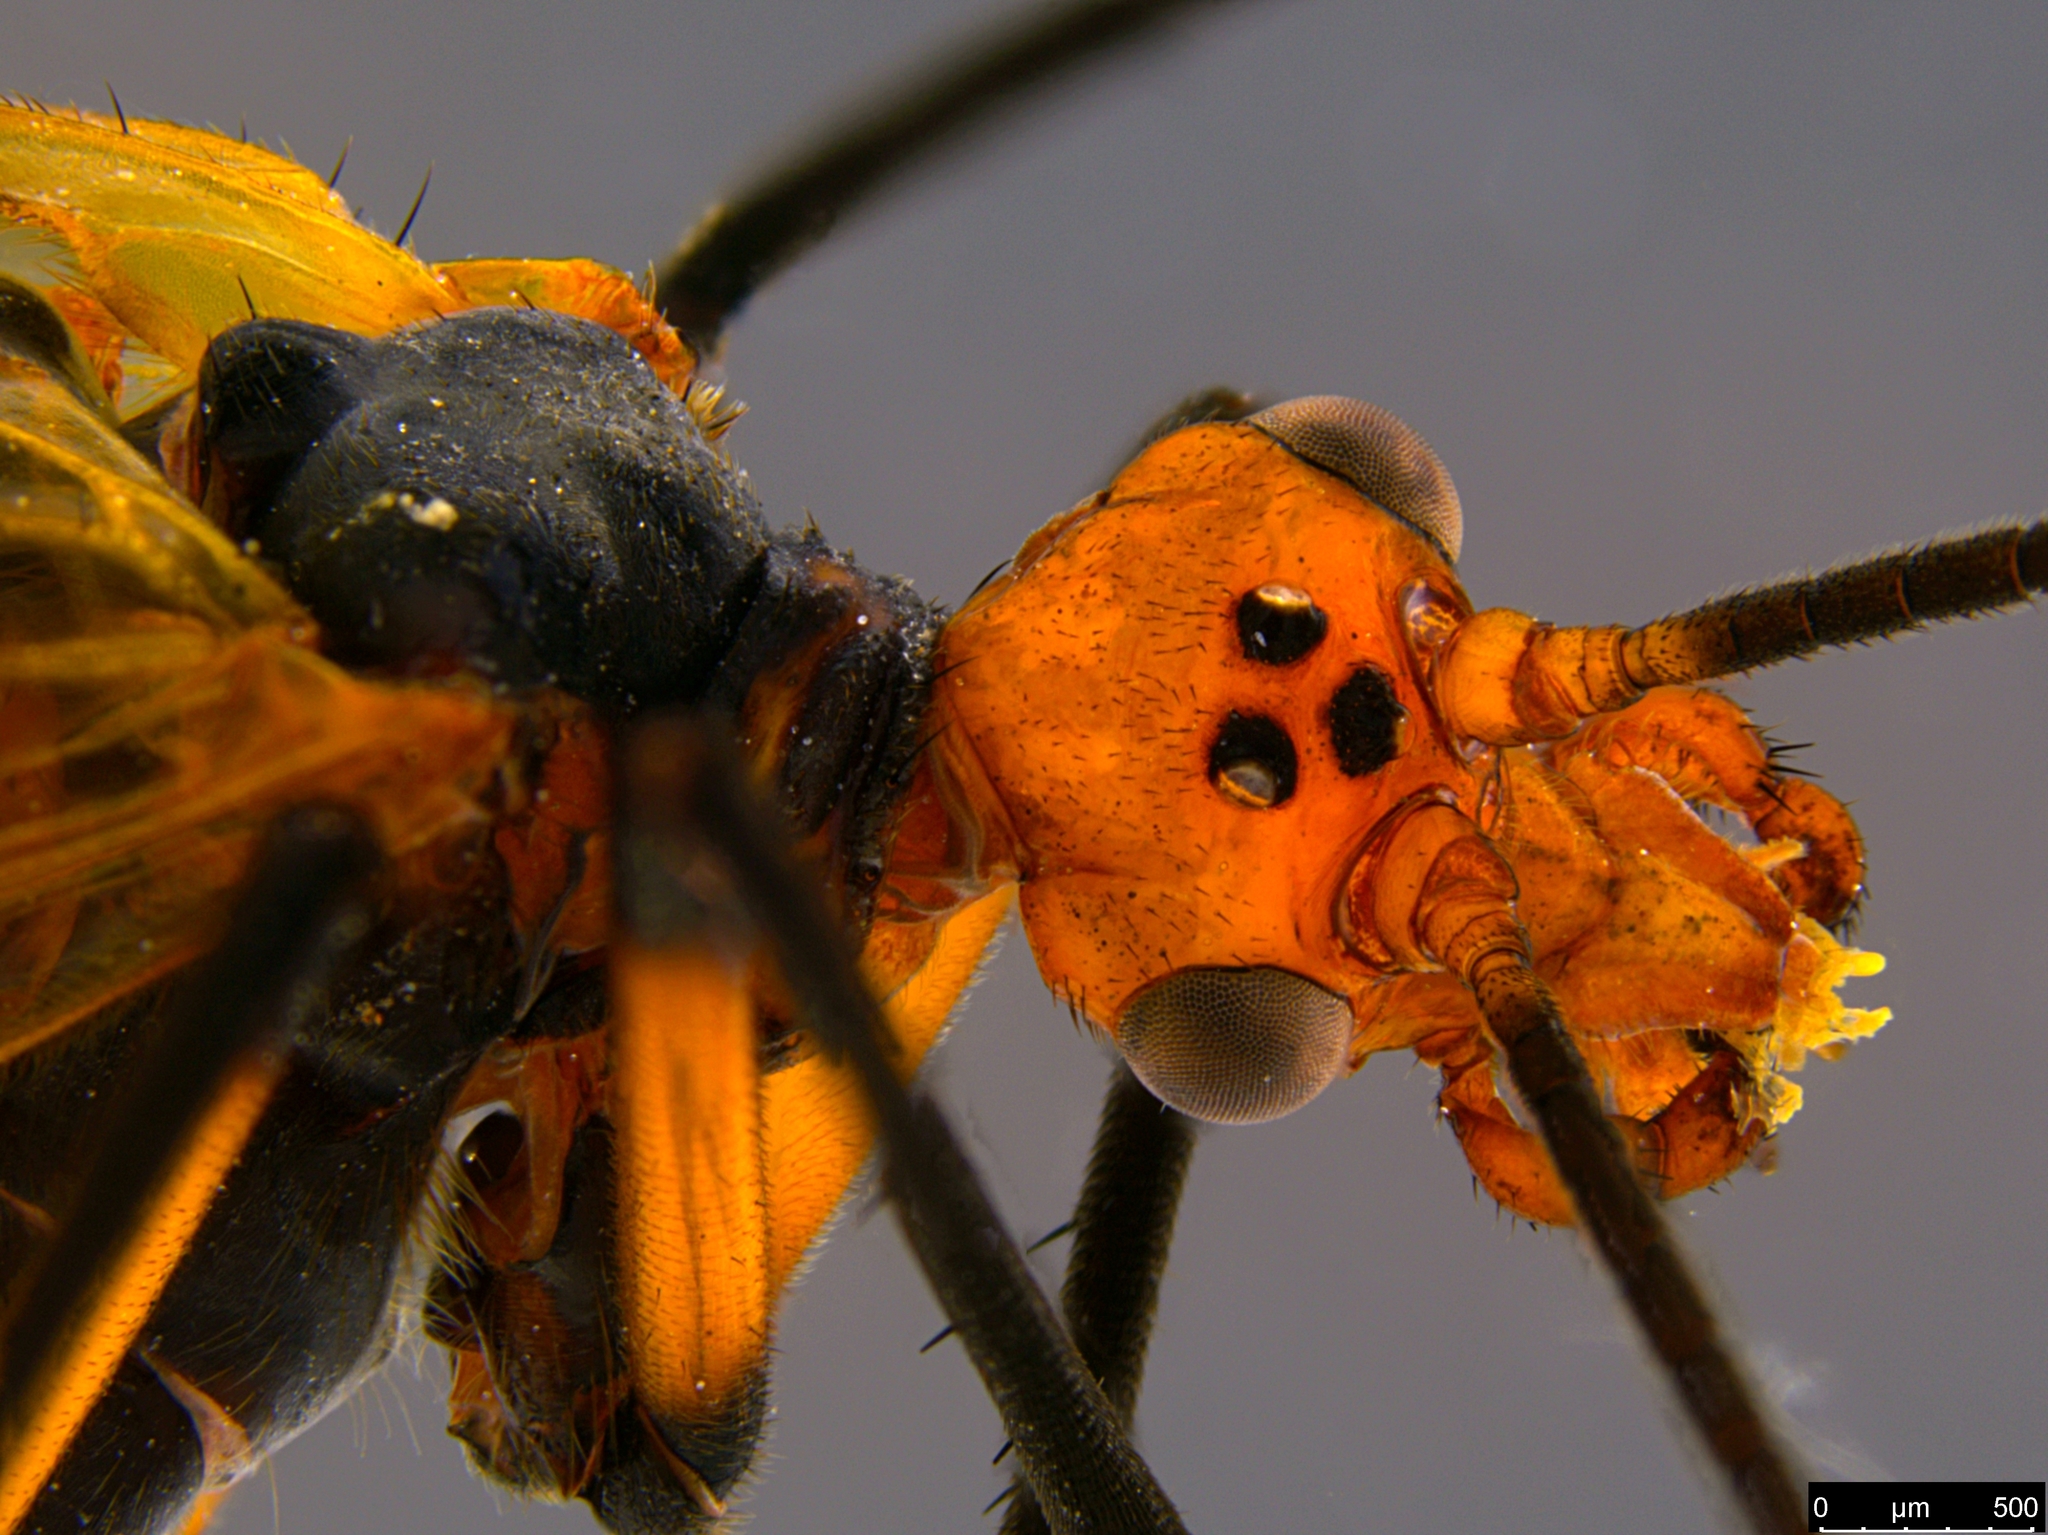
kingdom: Animalia
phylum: Arthropoda
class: Insecta
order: Mecoptera
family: Choristidae
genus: Chorista
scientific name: Chorista australis
